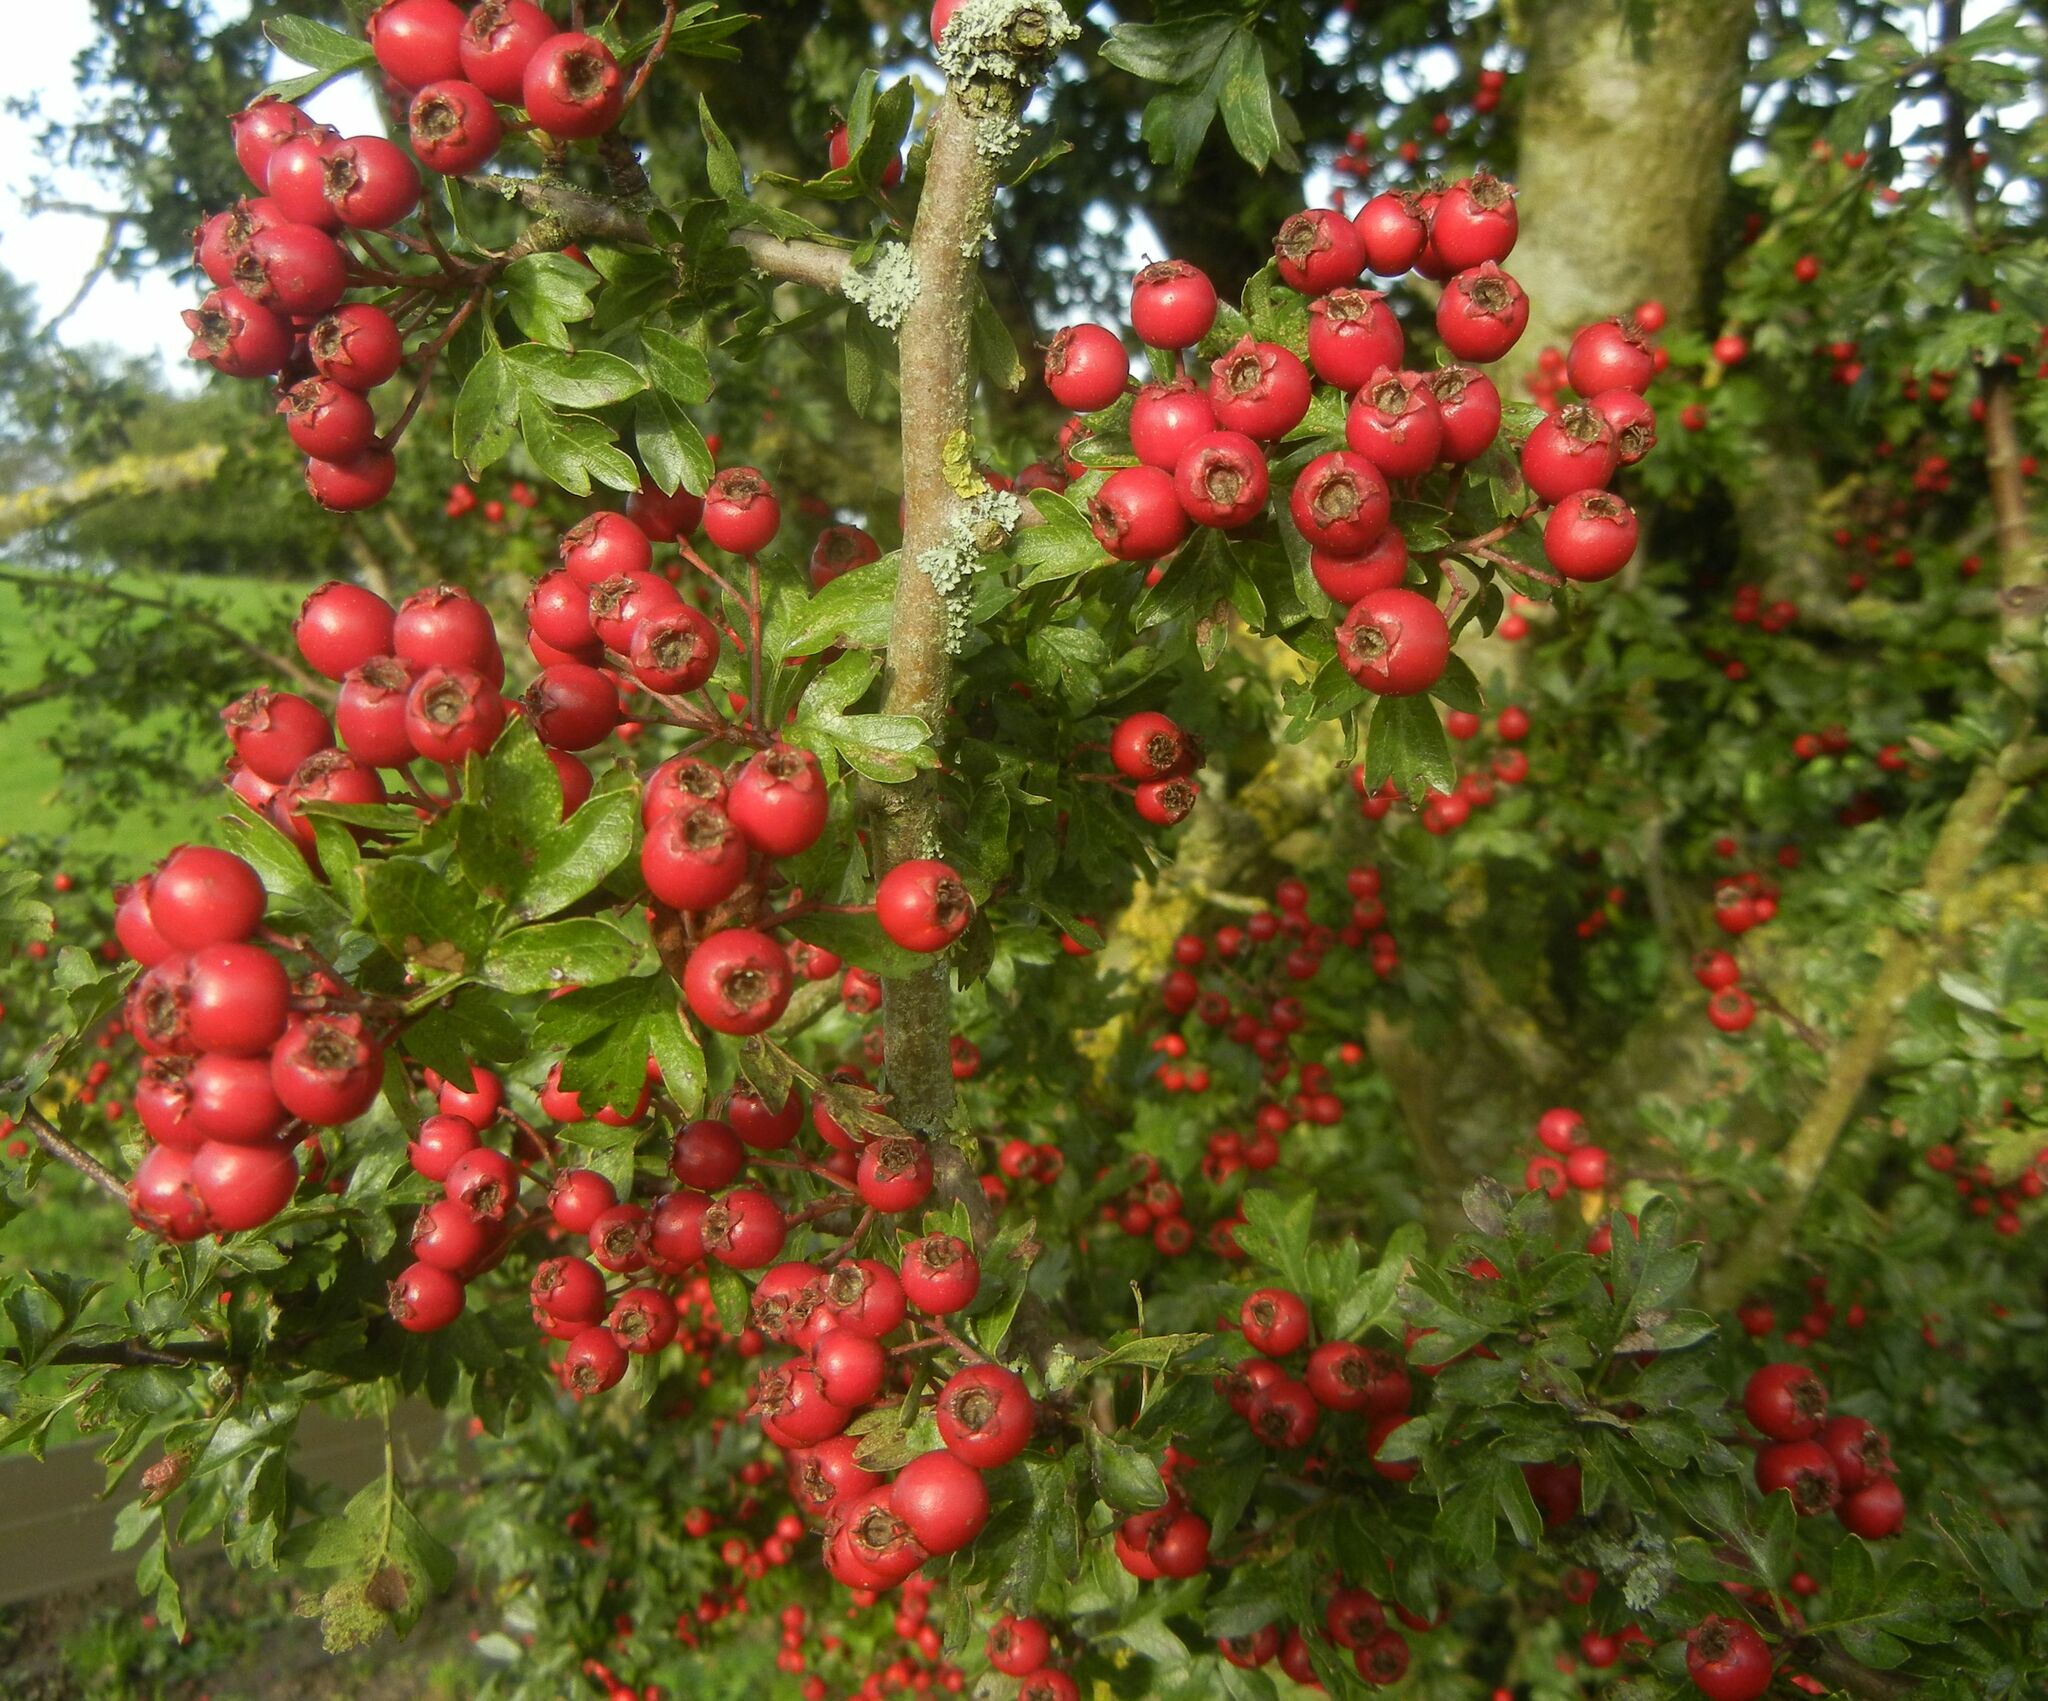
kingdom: Plantae
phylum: Tracheophyta
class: Magnoliopsida
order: Rosales
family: Rosaceae
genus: Crataegus
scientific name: Crataegus monogyna
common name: Hawthorn
